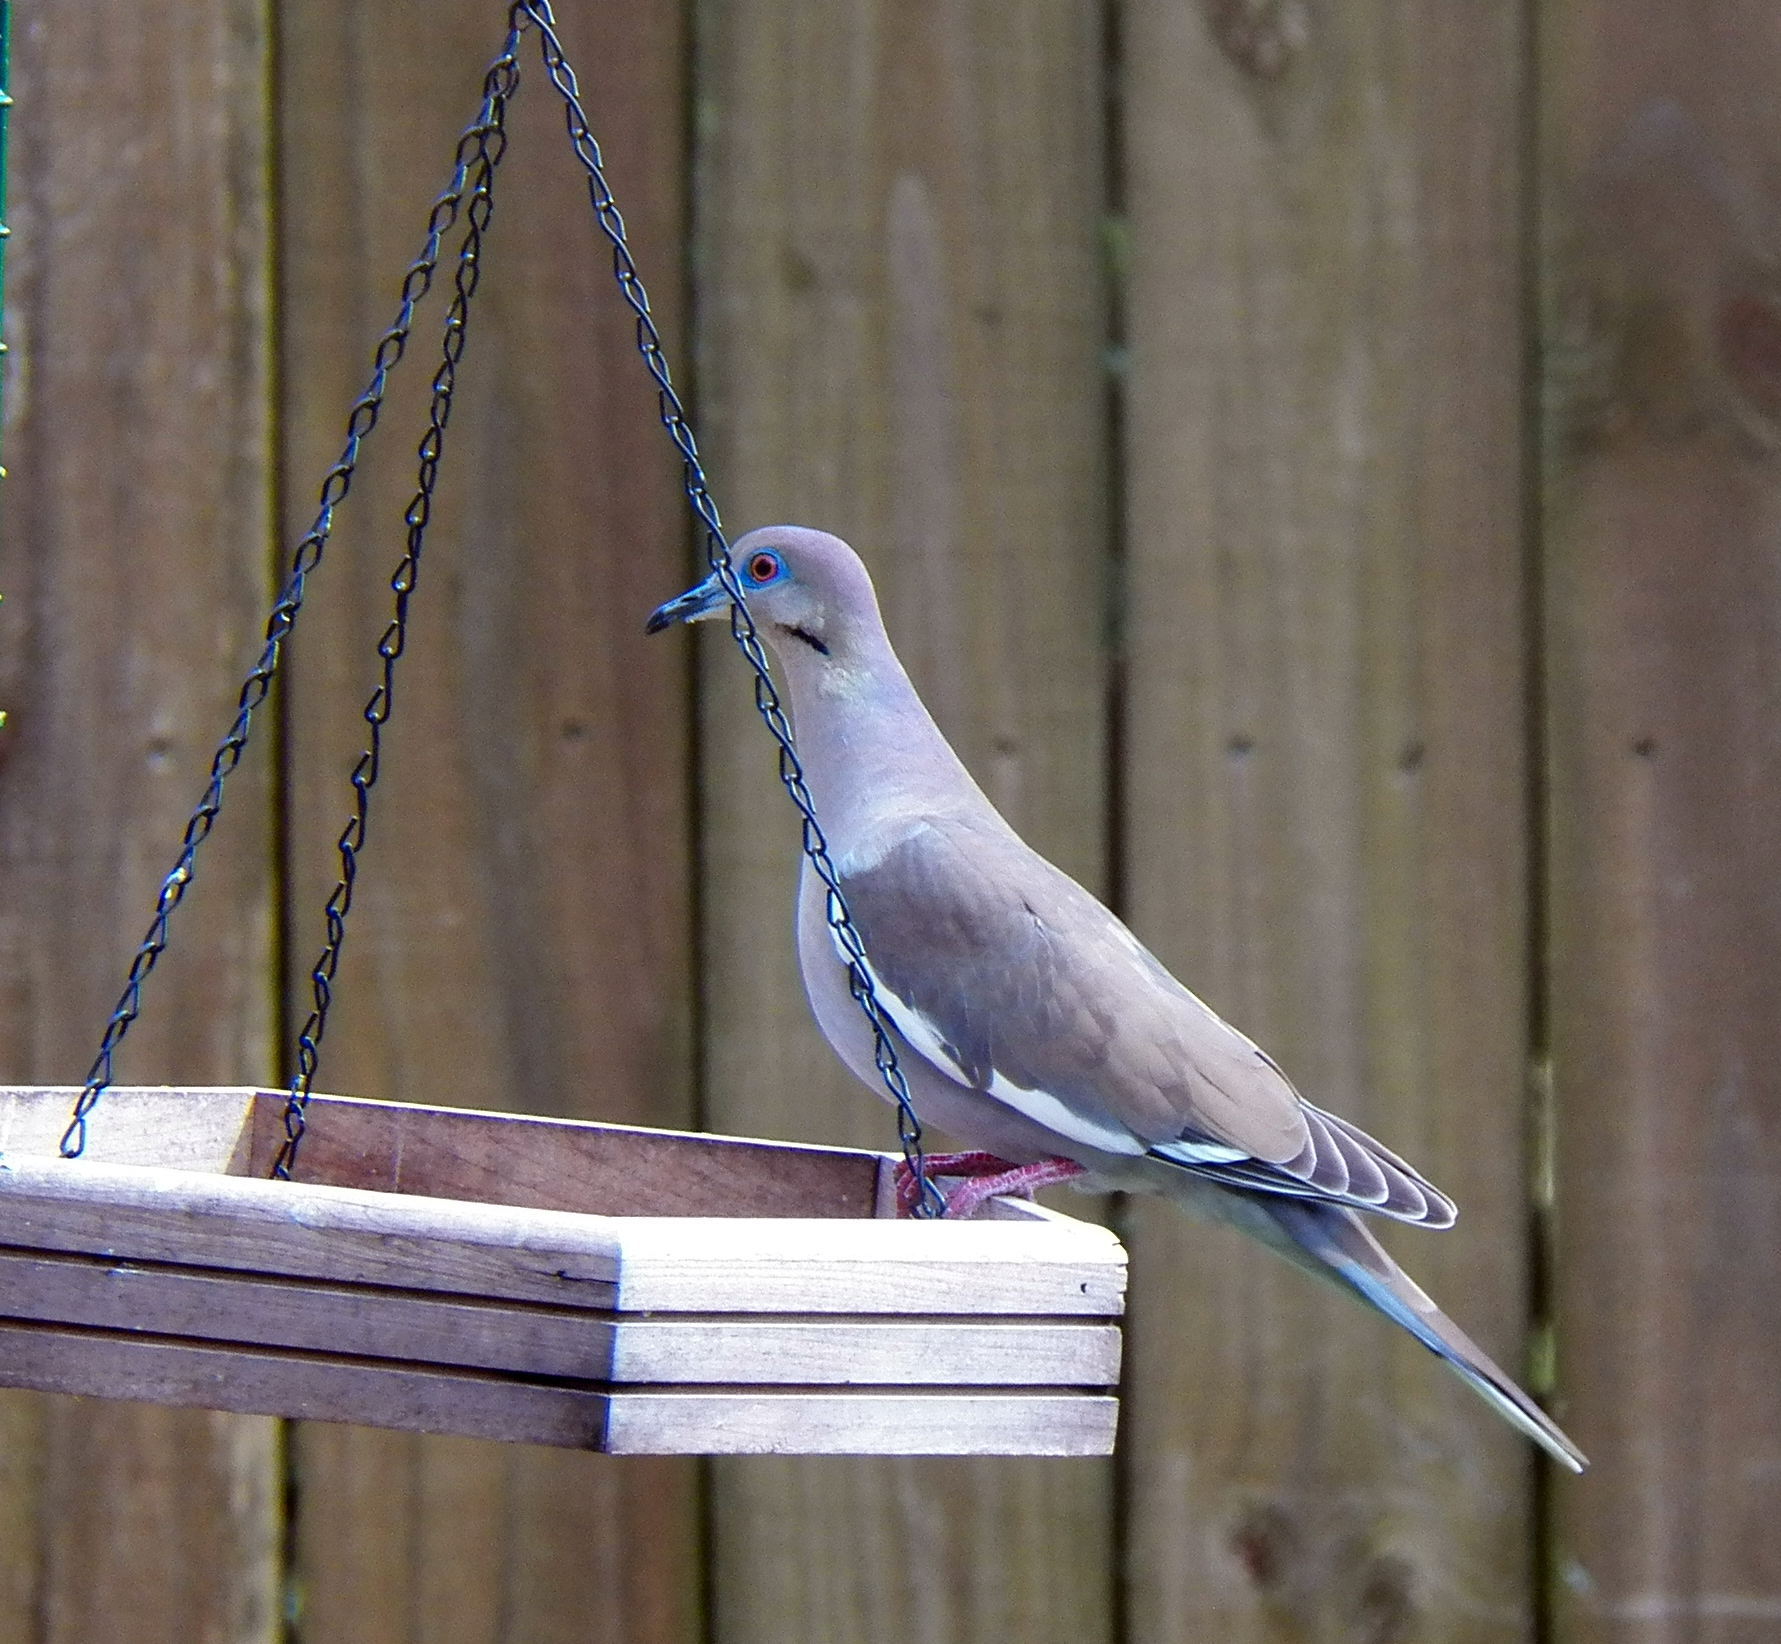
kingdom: Animalia
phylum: Chordata
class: Aves
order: Columbiformes
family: Columbidae
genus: Zenaida
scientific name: Zenaida asiatica
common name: White-winged dove
